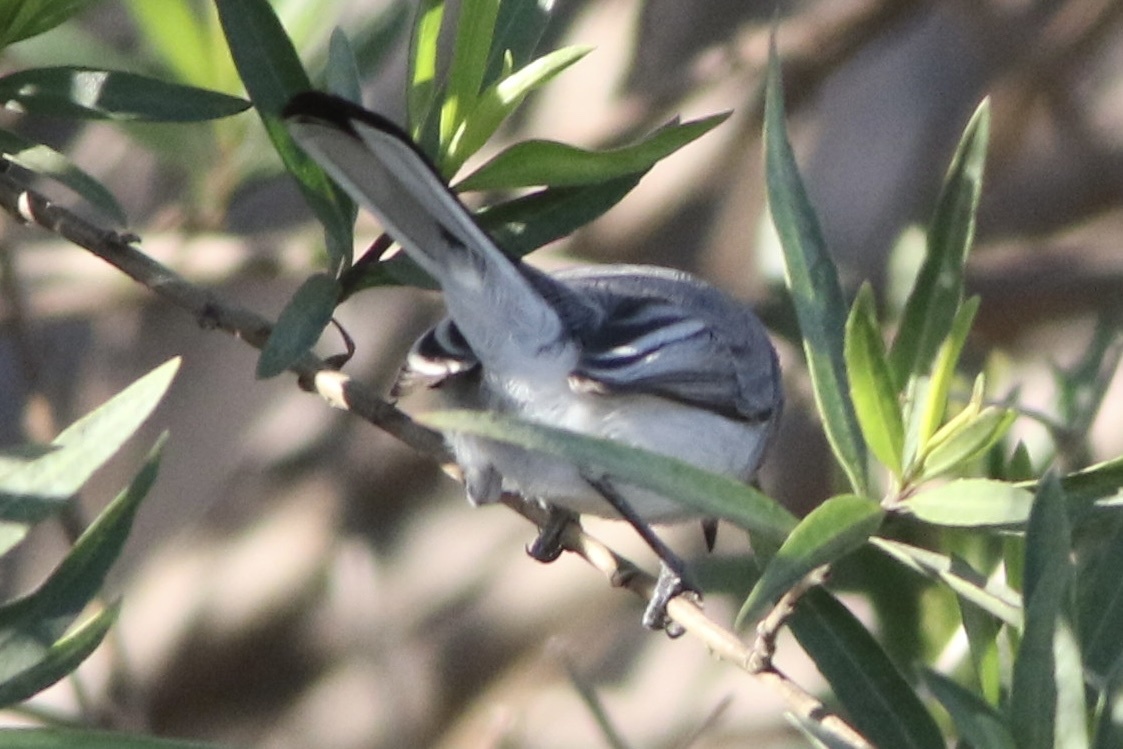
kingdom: Animalia
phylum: Chordata
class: Aves
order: Passeriformes
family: Polioptilidae
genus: Polioptila
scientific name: Polioptila caerulea
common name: Blue-gray gnatcatcher
